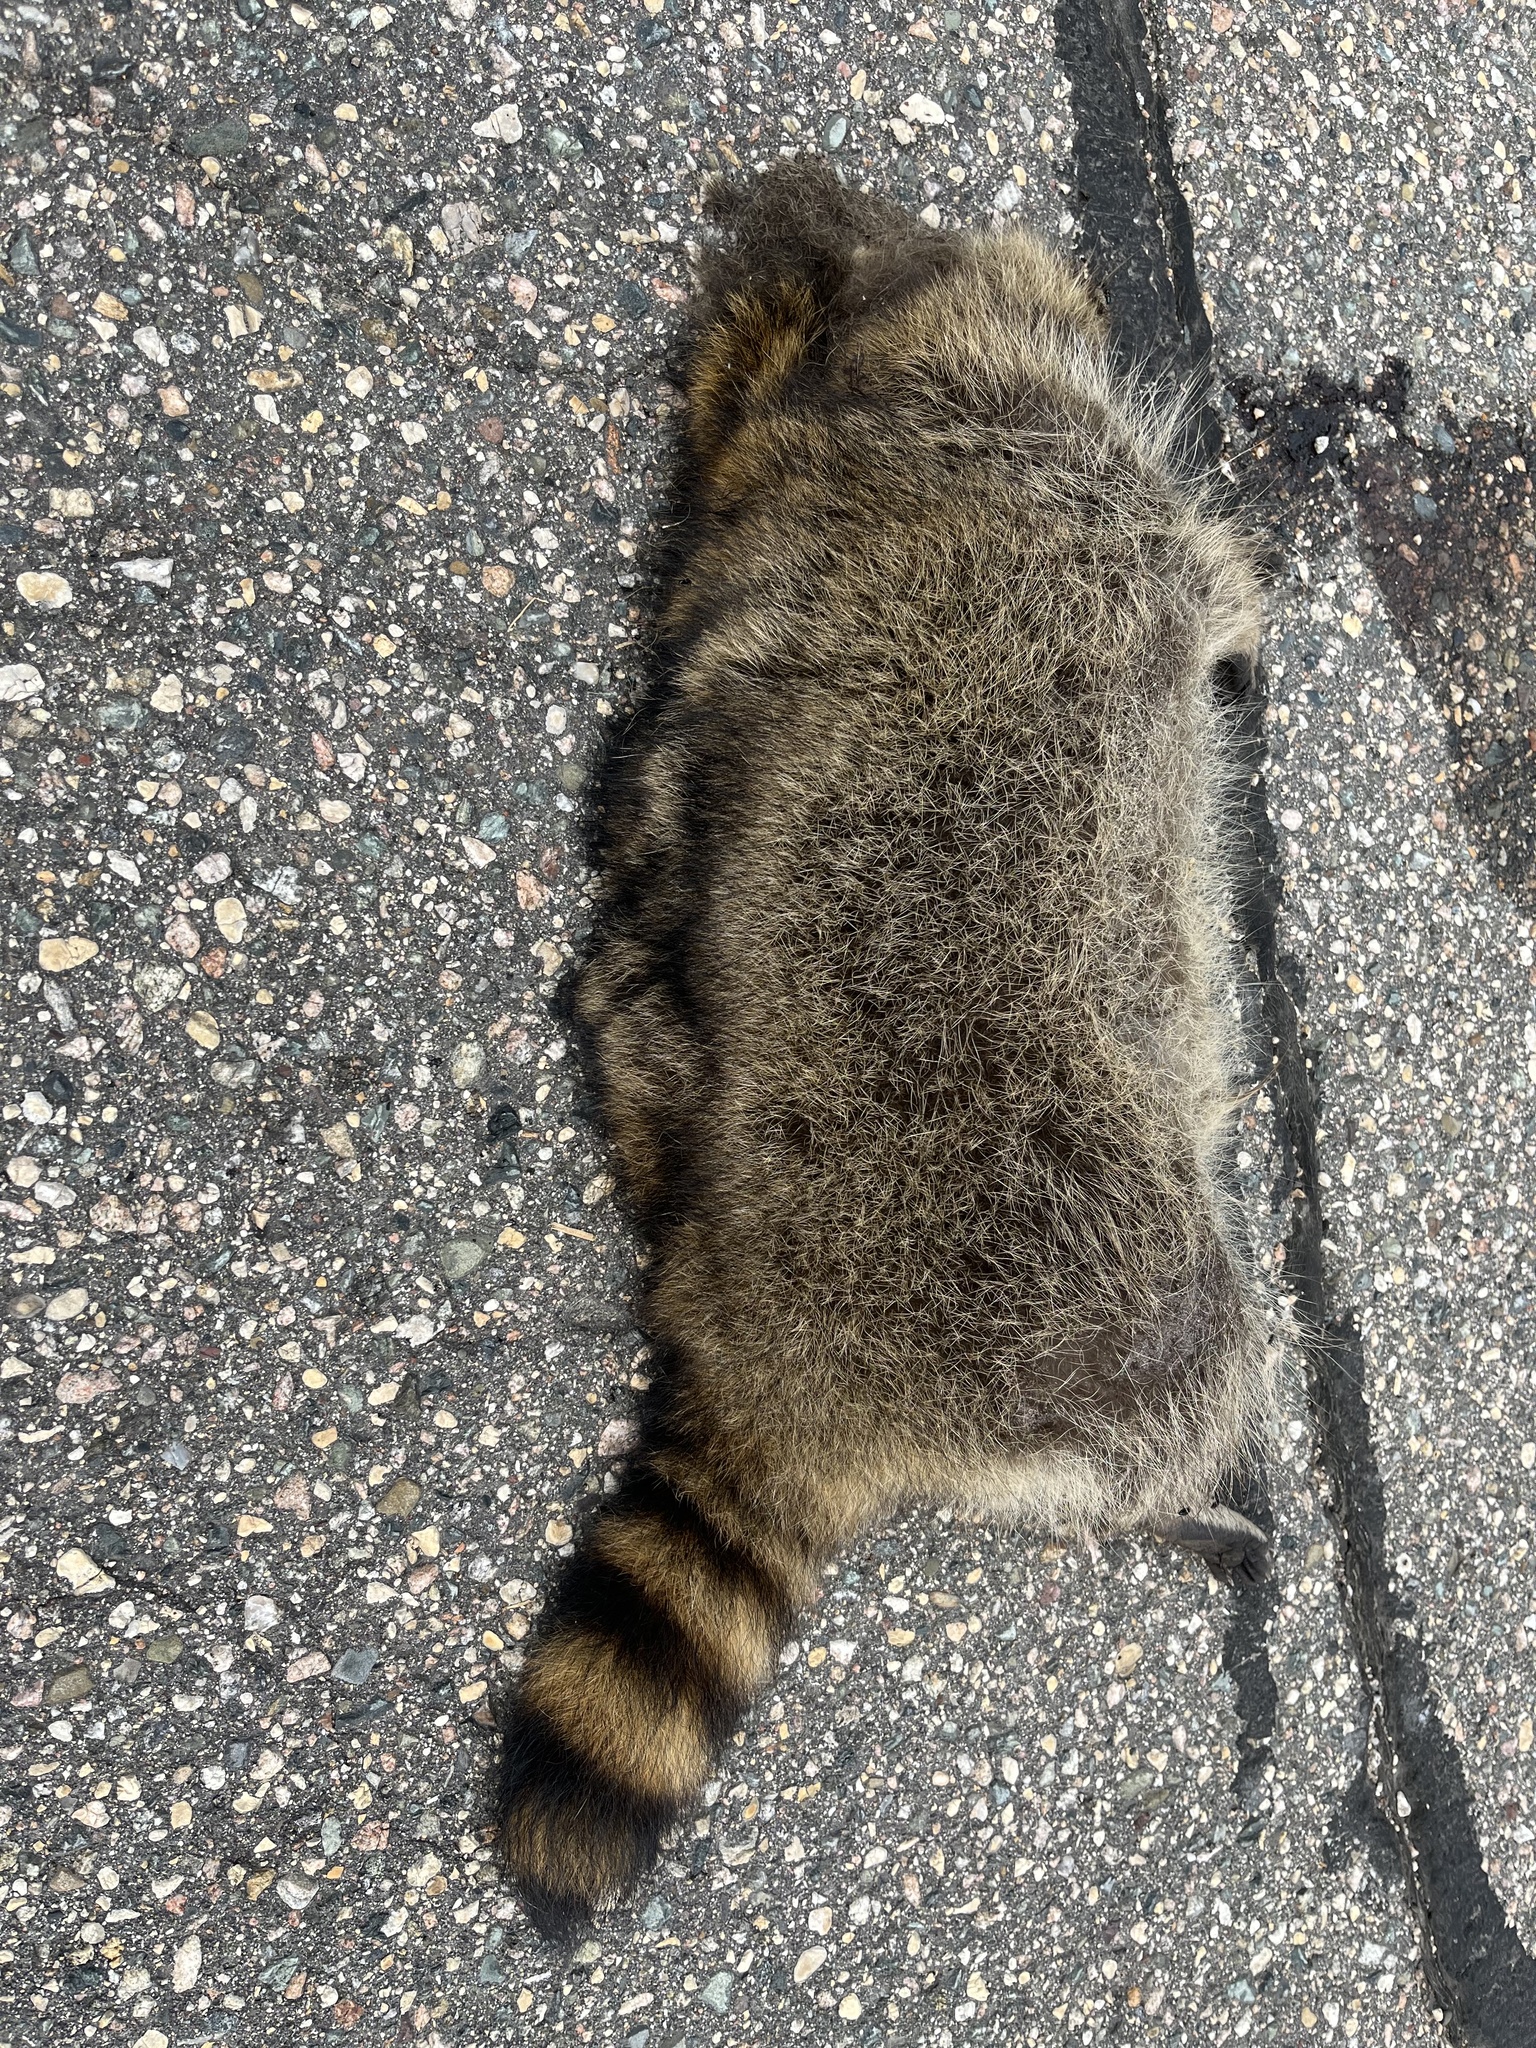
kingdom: Animalia
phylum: Chordata
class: Mammalia
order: Carnivora
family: Procyonidae
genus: Procyon
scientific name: Procyon lotor
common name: Raccoon
